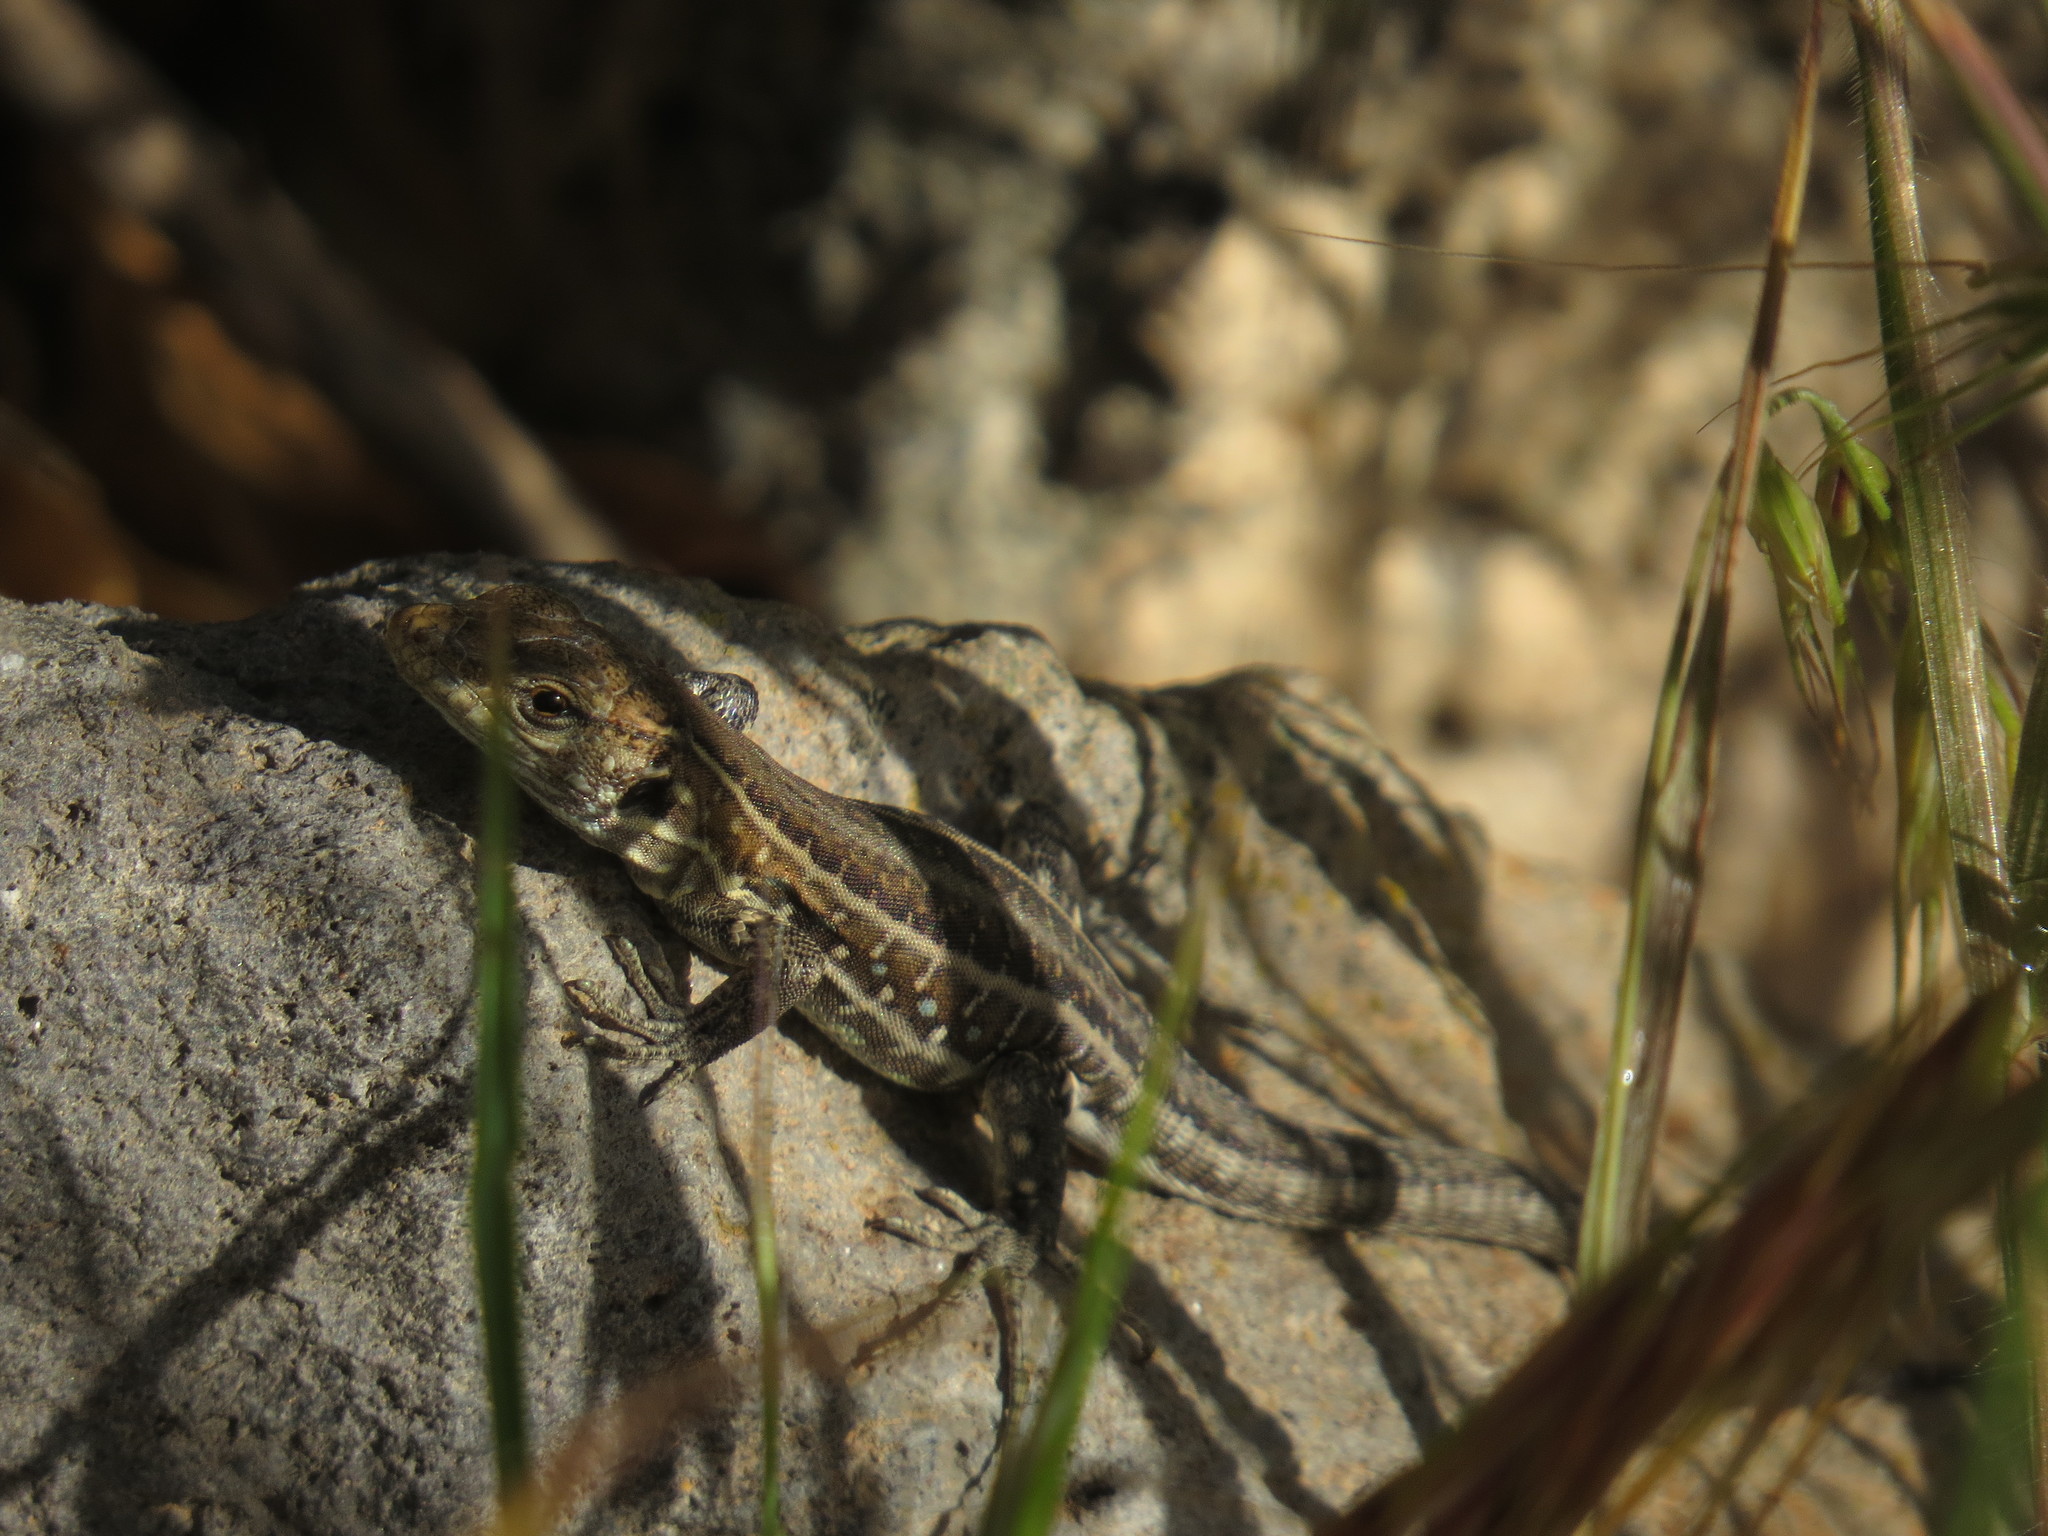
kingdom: Animalia
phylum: Chordata
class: Squamata
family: Lacertidae
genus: Gallotia
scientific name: Gallotia galloti
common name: Gallot's lizard
